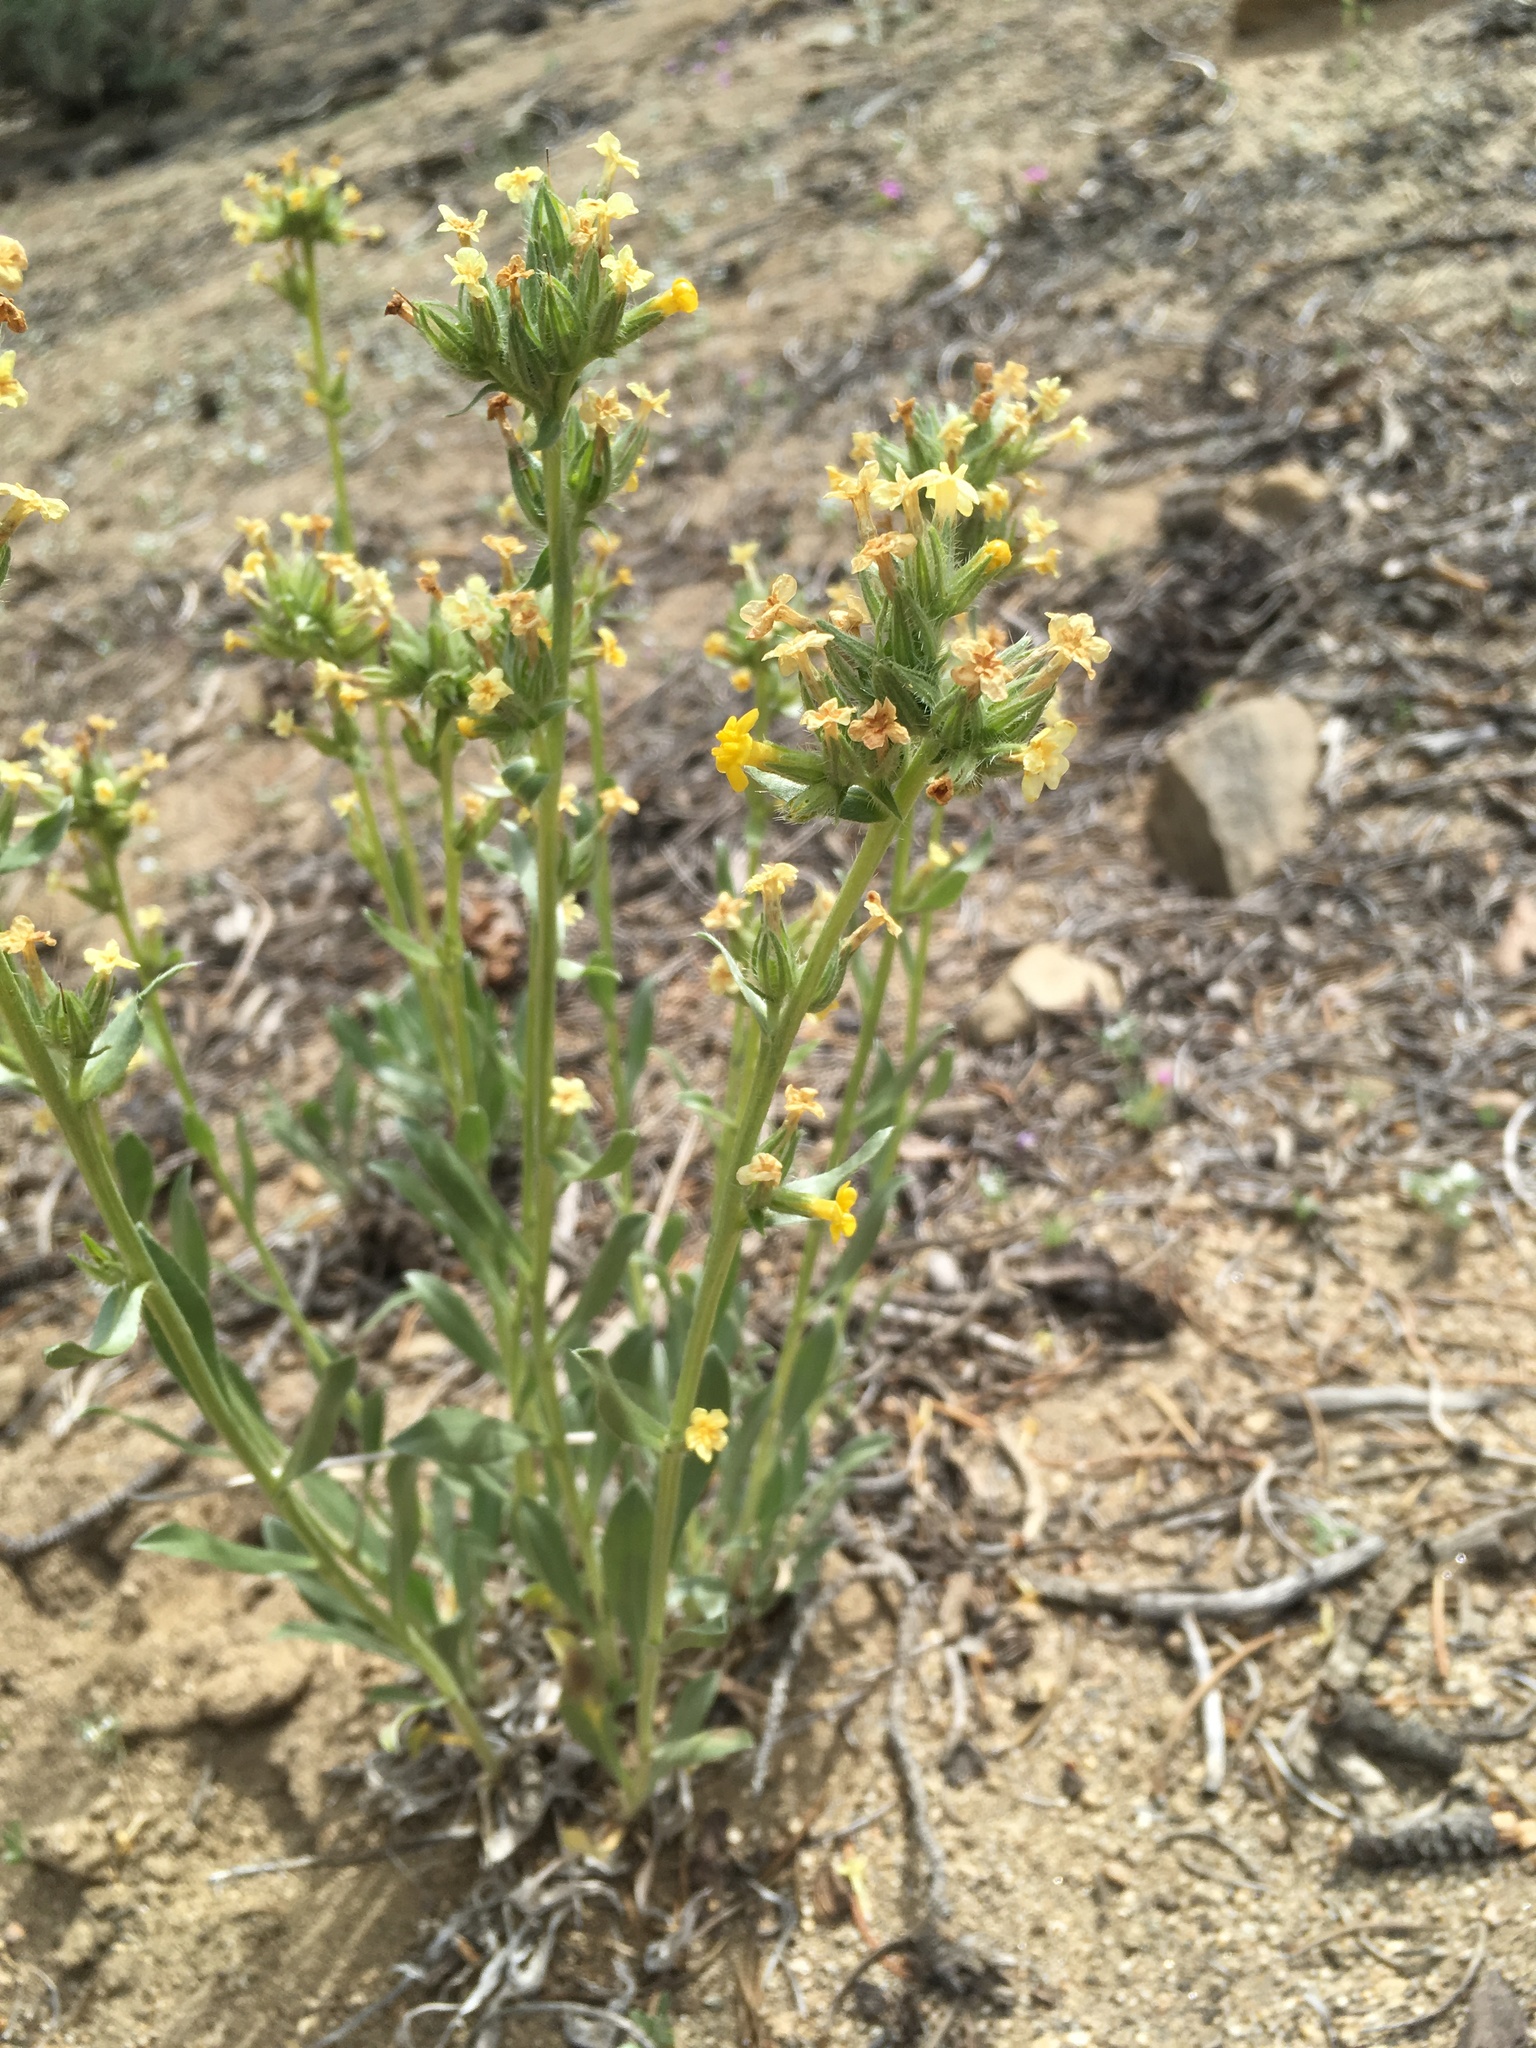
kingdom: Plantae
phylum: Tracheophyta
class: Magnoliopsida
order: Boraginales
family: Boraginaceae
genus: Oreocarya
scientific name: Oreocarya confertiflora
